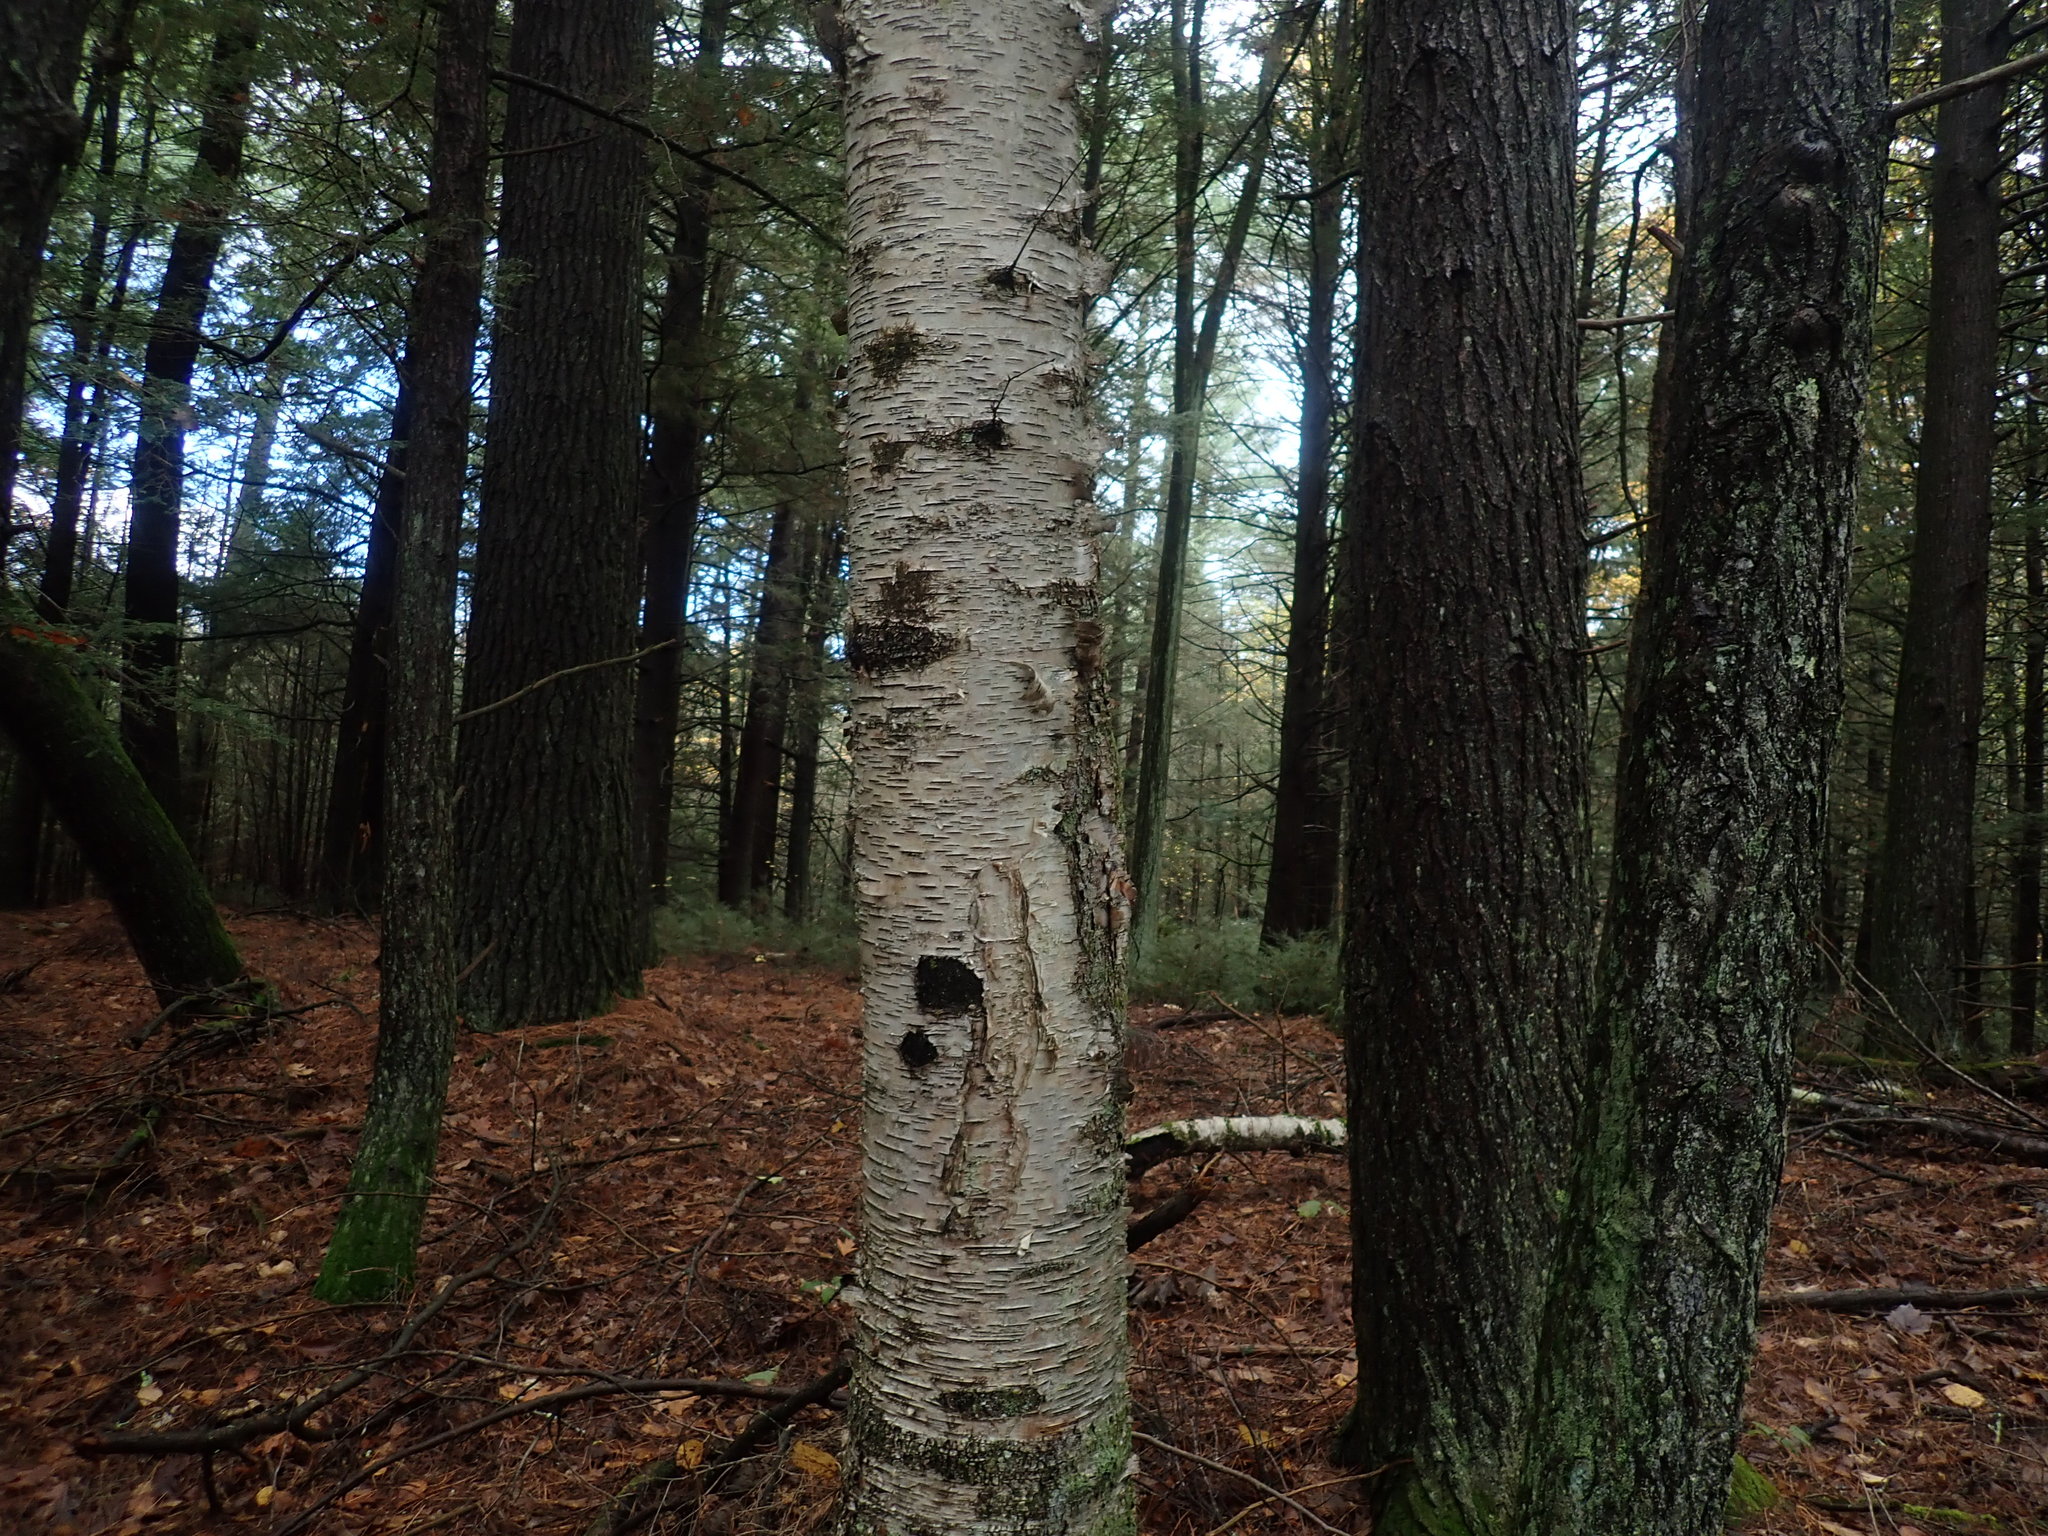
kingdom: Plantae
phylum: Tracheophyta
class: Magnoliopsida
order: Fagales
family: Betulaceae
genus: Betula
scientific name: Betula papyrifera
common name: Paper birch
